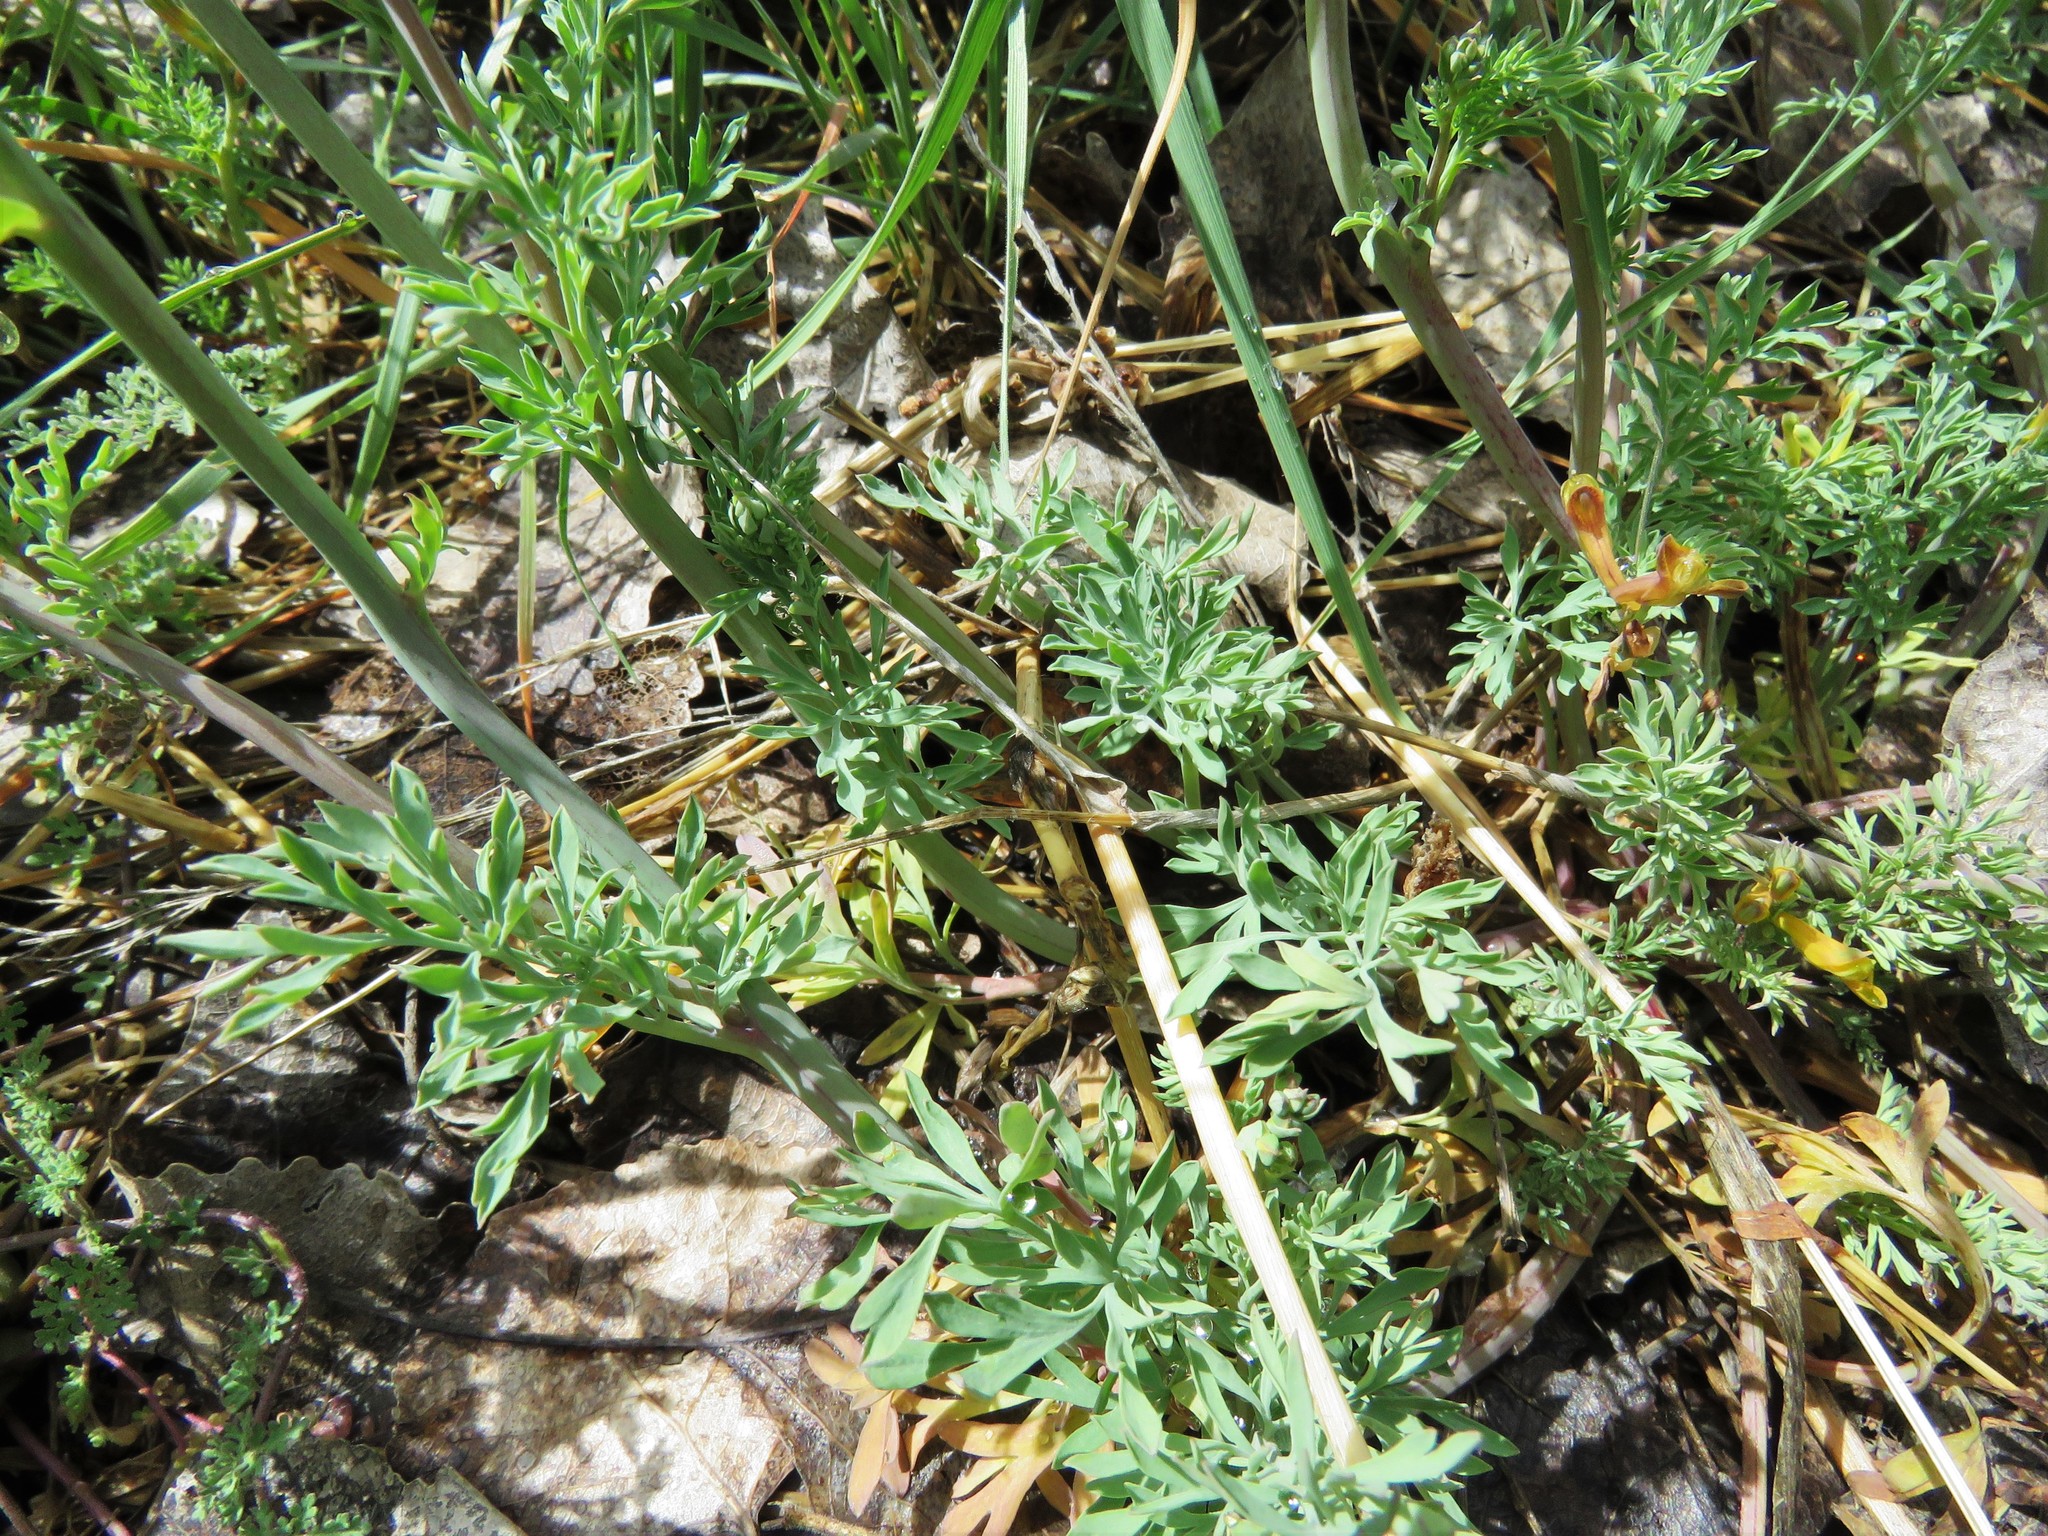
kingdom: Plantae
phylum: Tracheophyta
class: Magnoliopsida
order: Ranunculales
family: Papaveraceae
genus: Corydalis
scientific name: Corydalis aurea
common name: Golden corydalis
